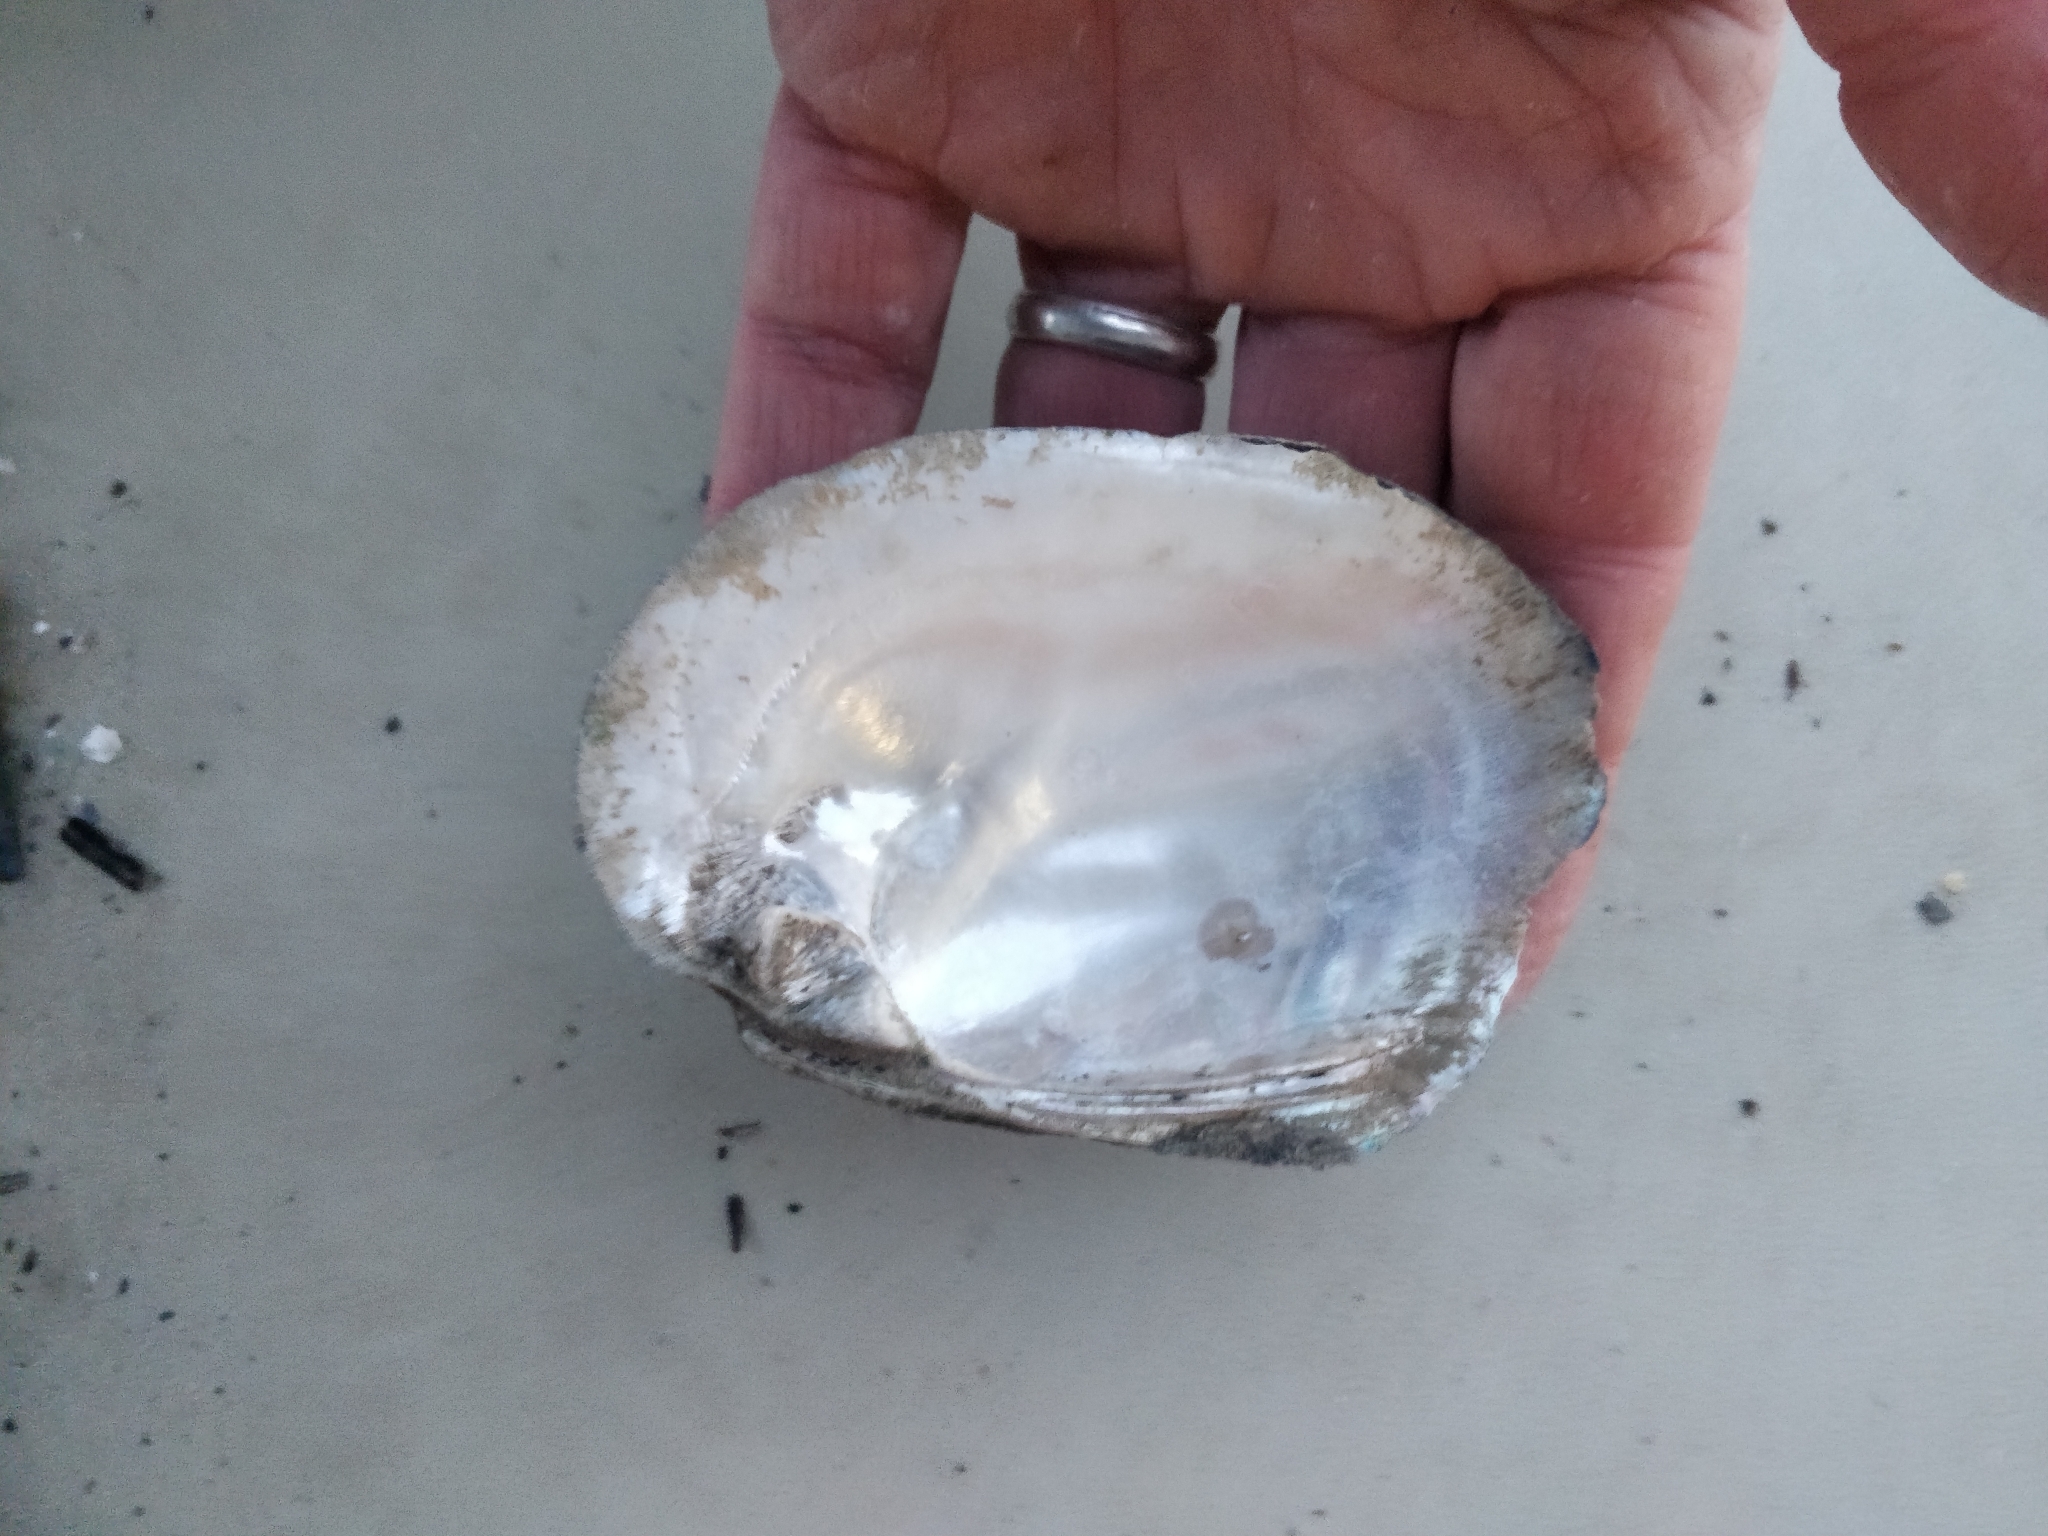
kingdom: Animalia
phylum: Mollusca
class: Bivalvia
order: Unionida
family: Unionidae
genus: Amblema
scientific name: Amblema plicata
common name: Threeridge
